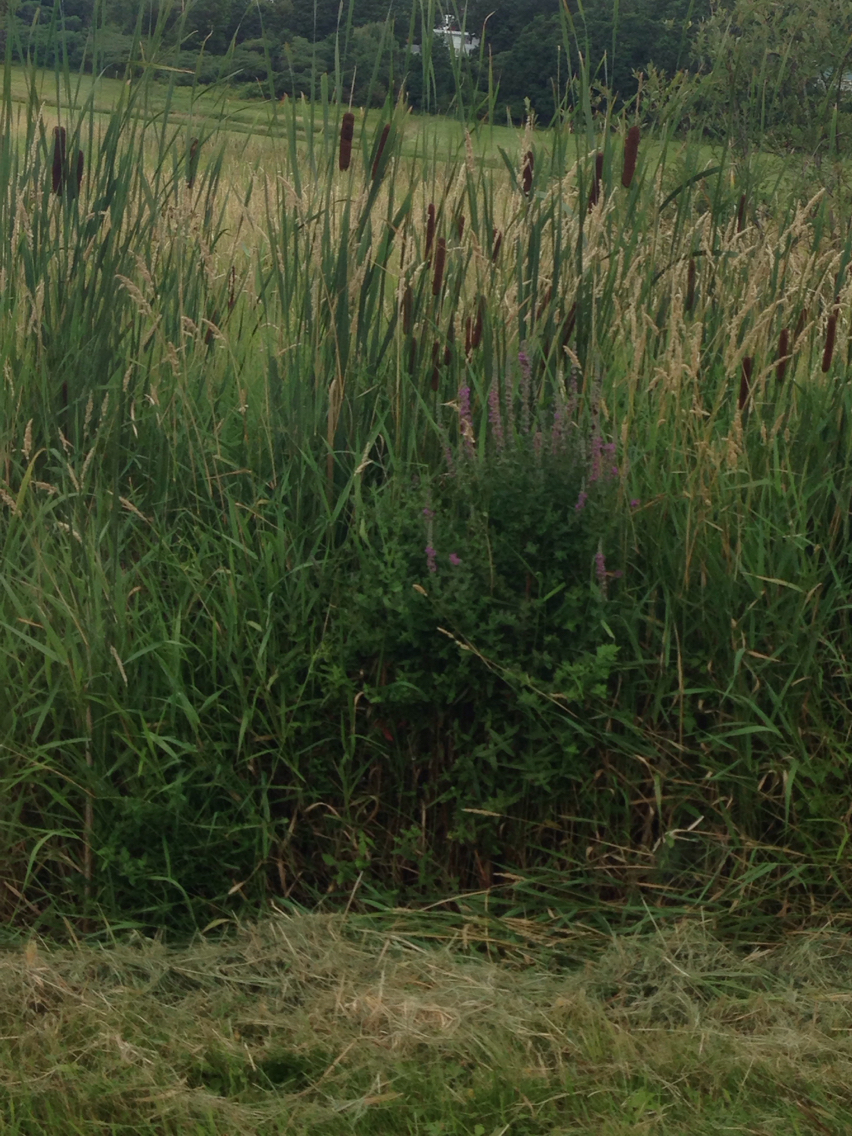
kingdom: Plantae
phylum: Tracheophyta
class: Magnoliopsida
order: Myrtales
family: Lythraceae
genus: Lythrum
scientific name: Lythrum salicaria
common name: Purple loosestrife
